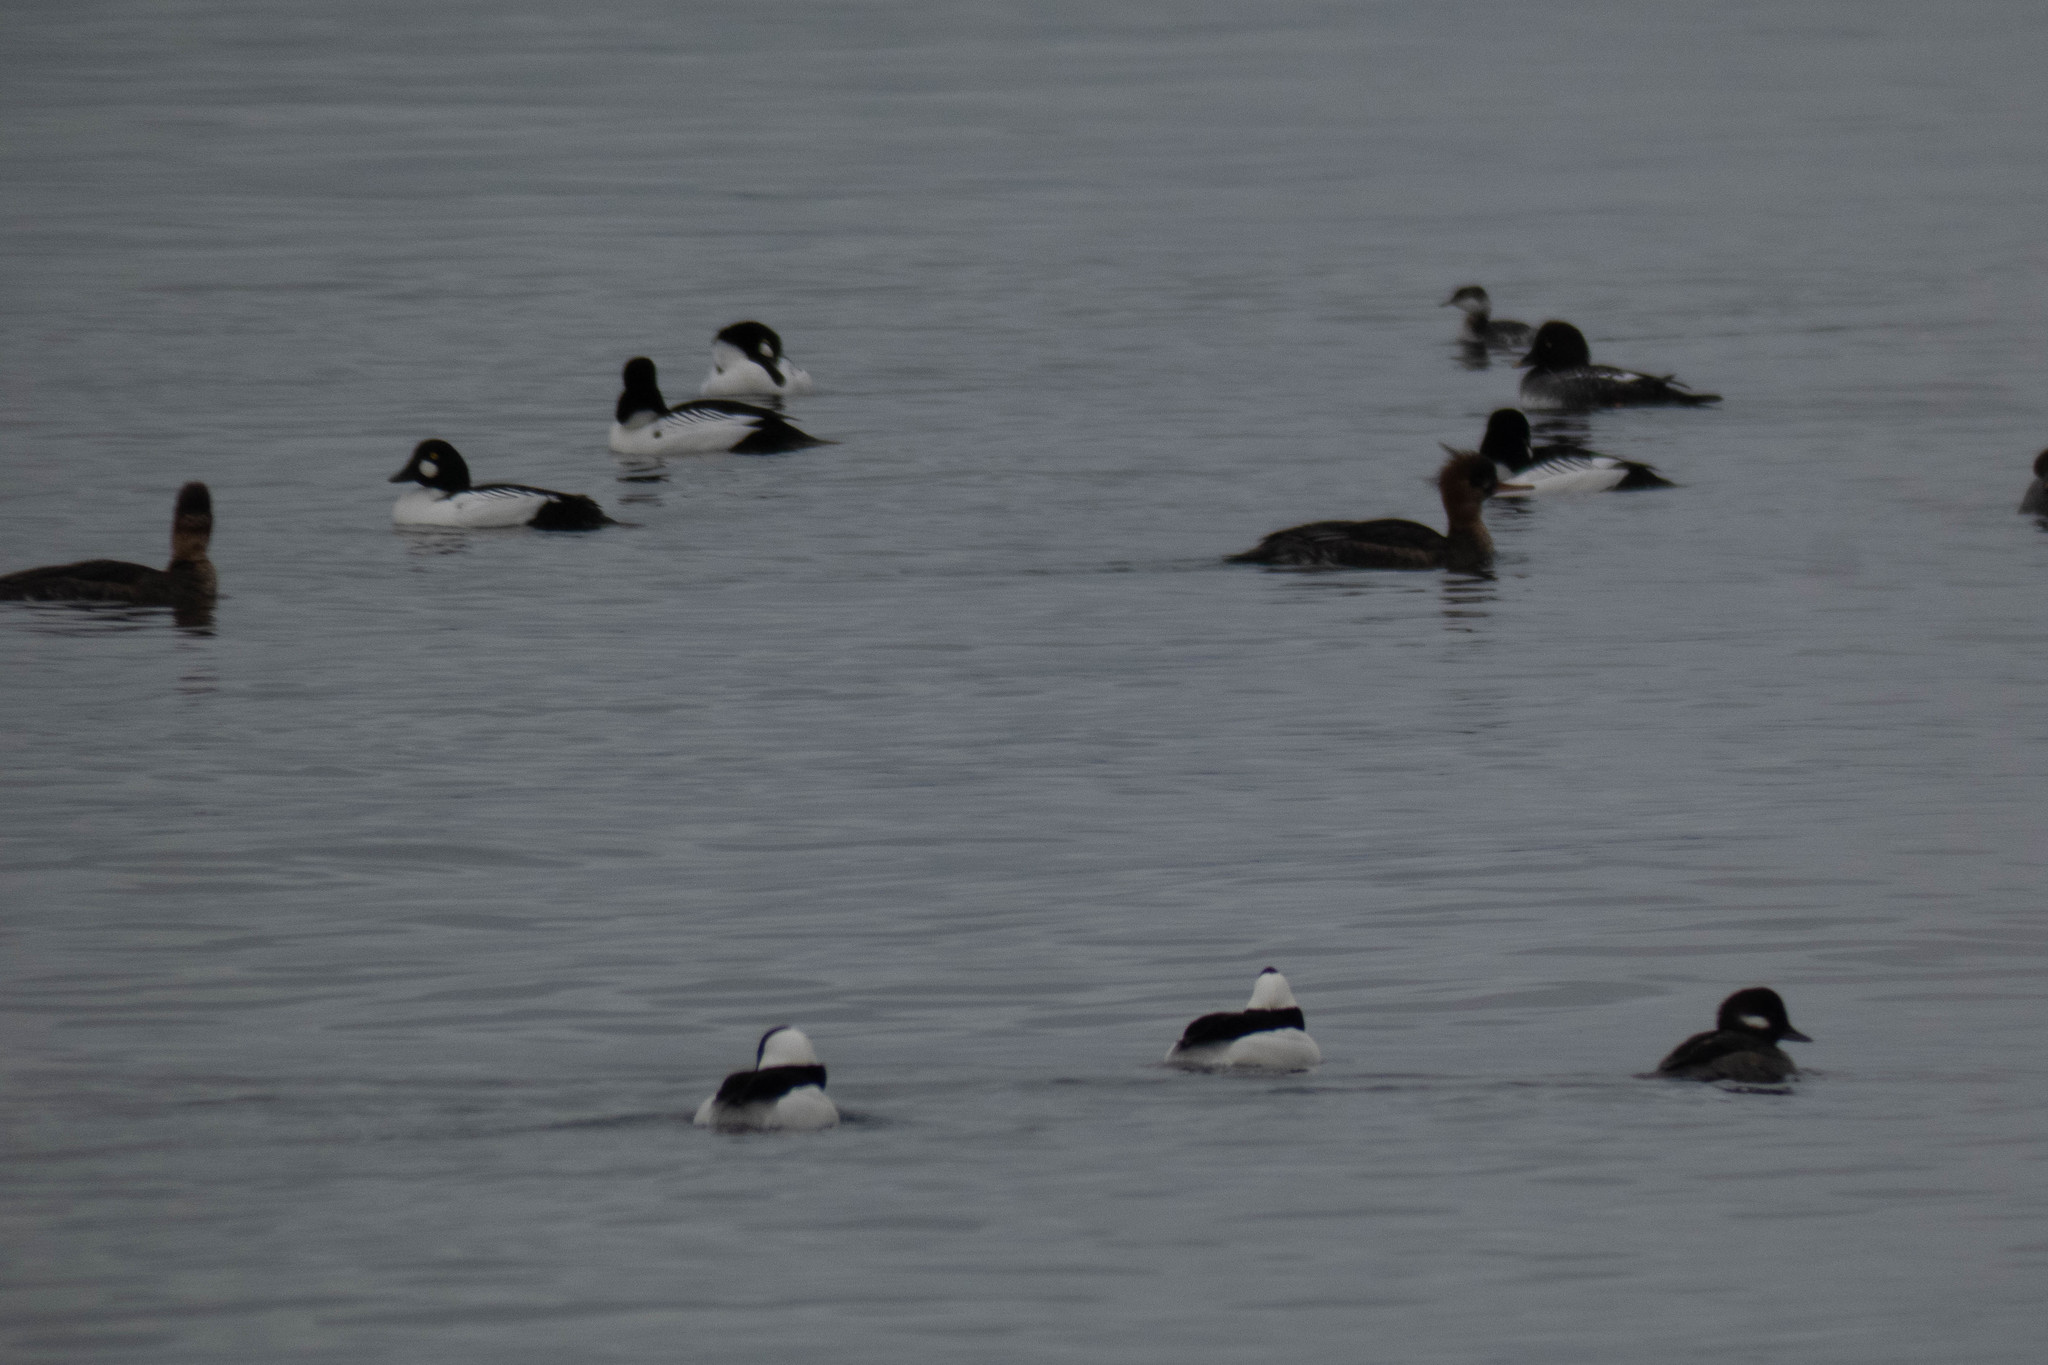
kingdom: Animalia
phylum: Chordata
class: Aves
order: Anseriformes
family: Anatidae
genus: Bucephala
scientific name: Bucephala albeola
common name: Bufflehead
